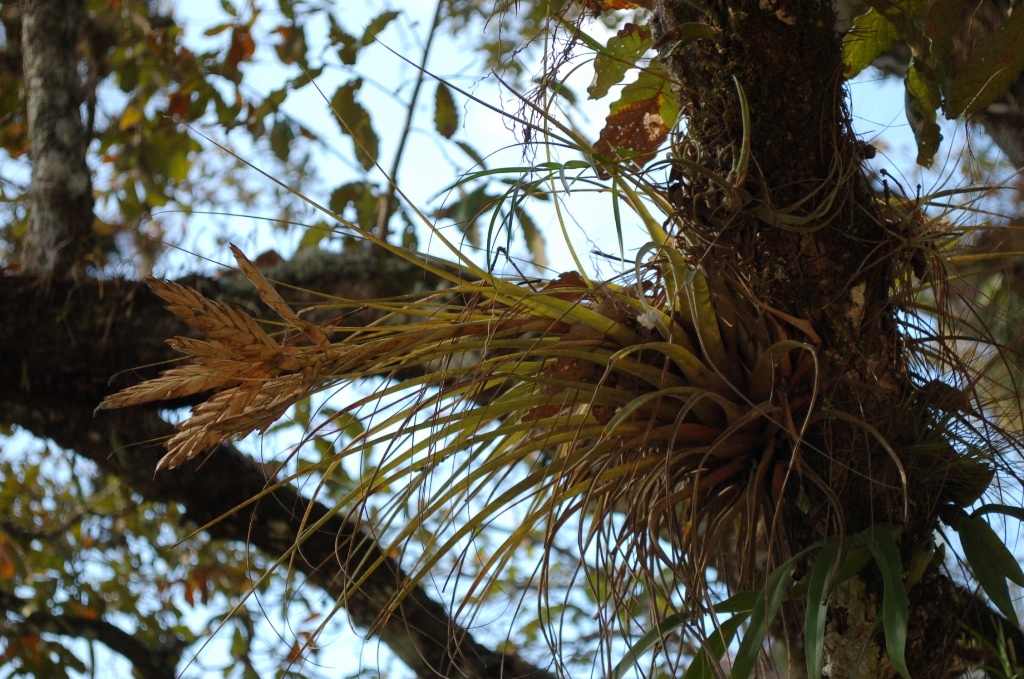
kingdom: Plantae
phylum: Tracheophyta
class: Liliopsida
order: Poales
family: Bromeliaceae
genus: Tillandsia
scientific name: Tillandsia fasciculata
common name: Giant airplant
